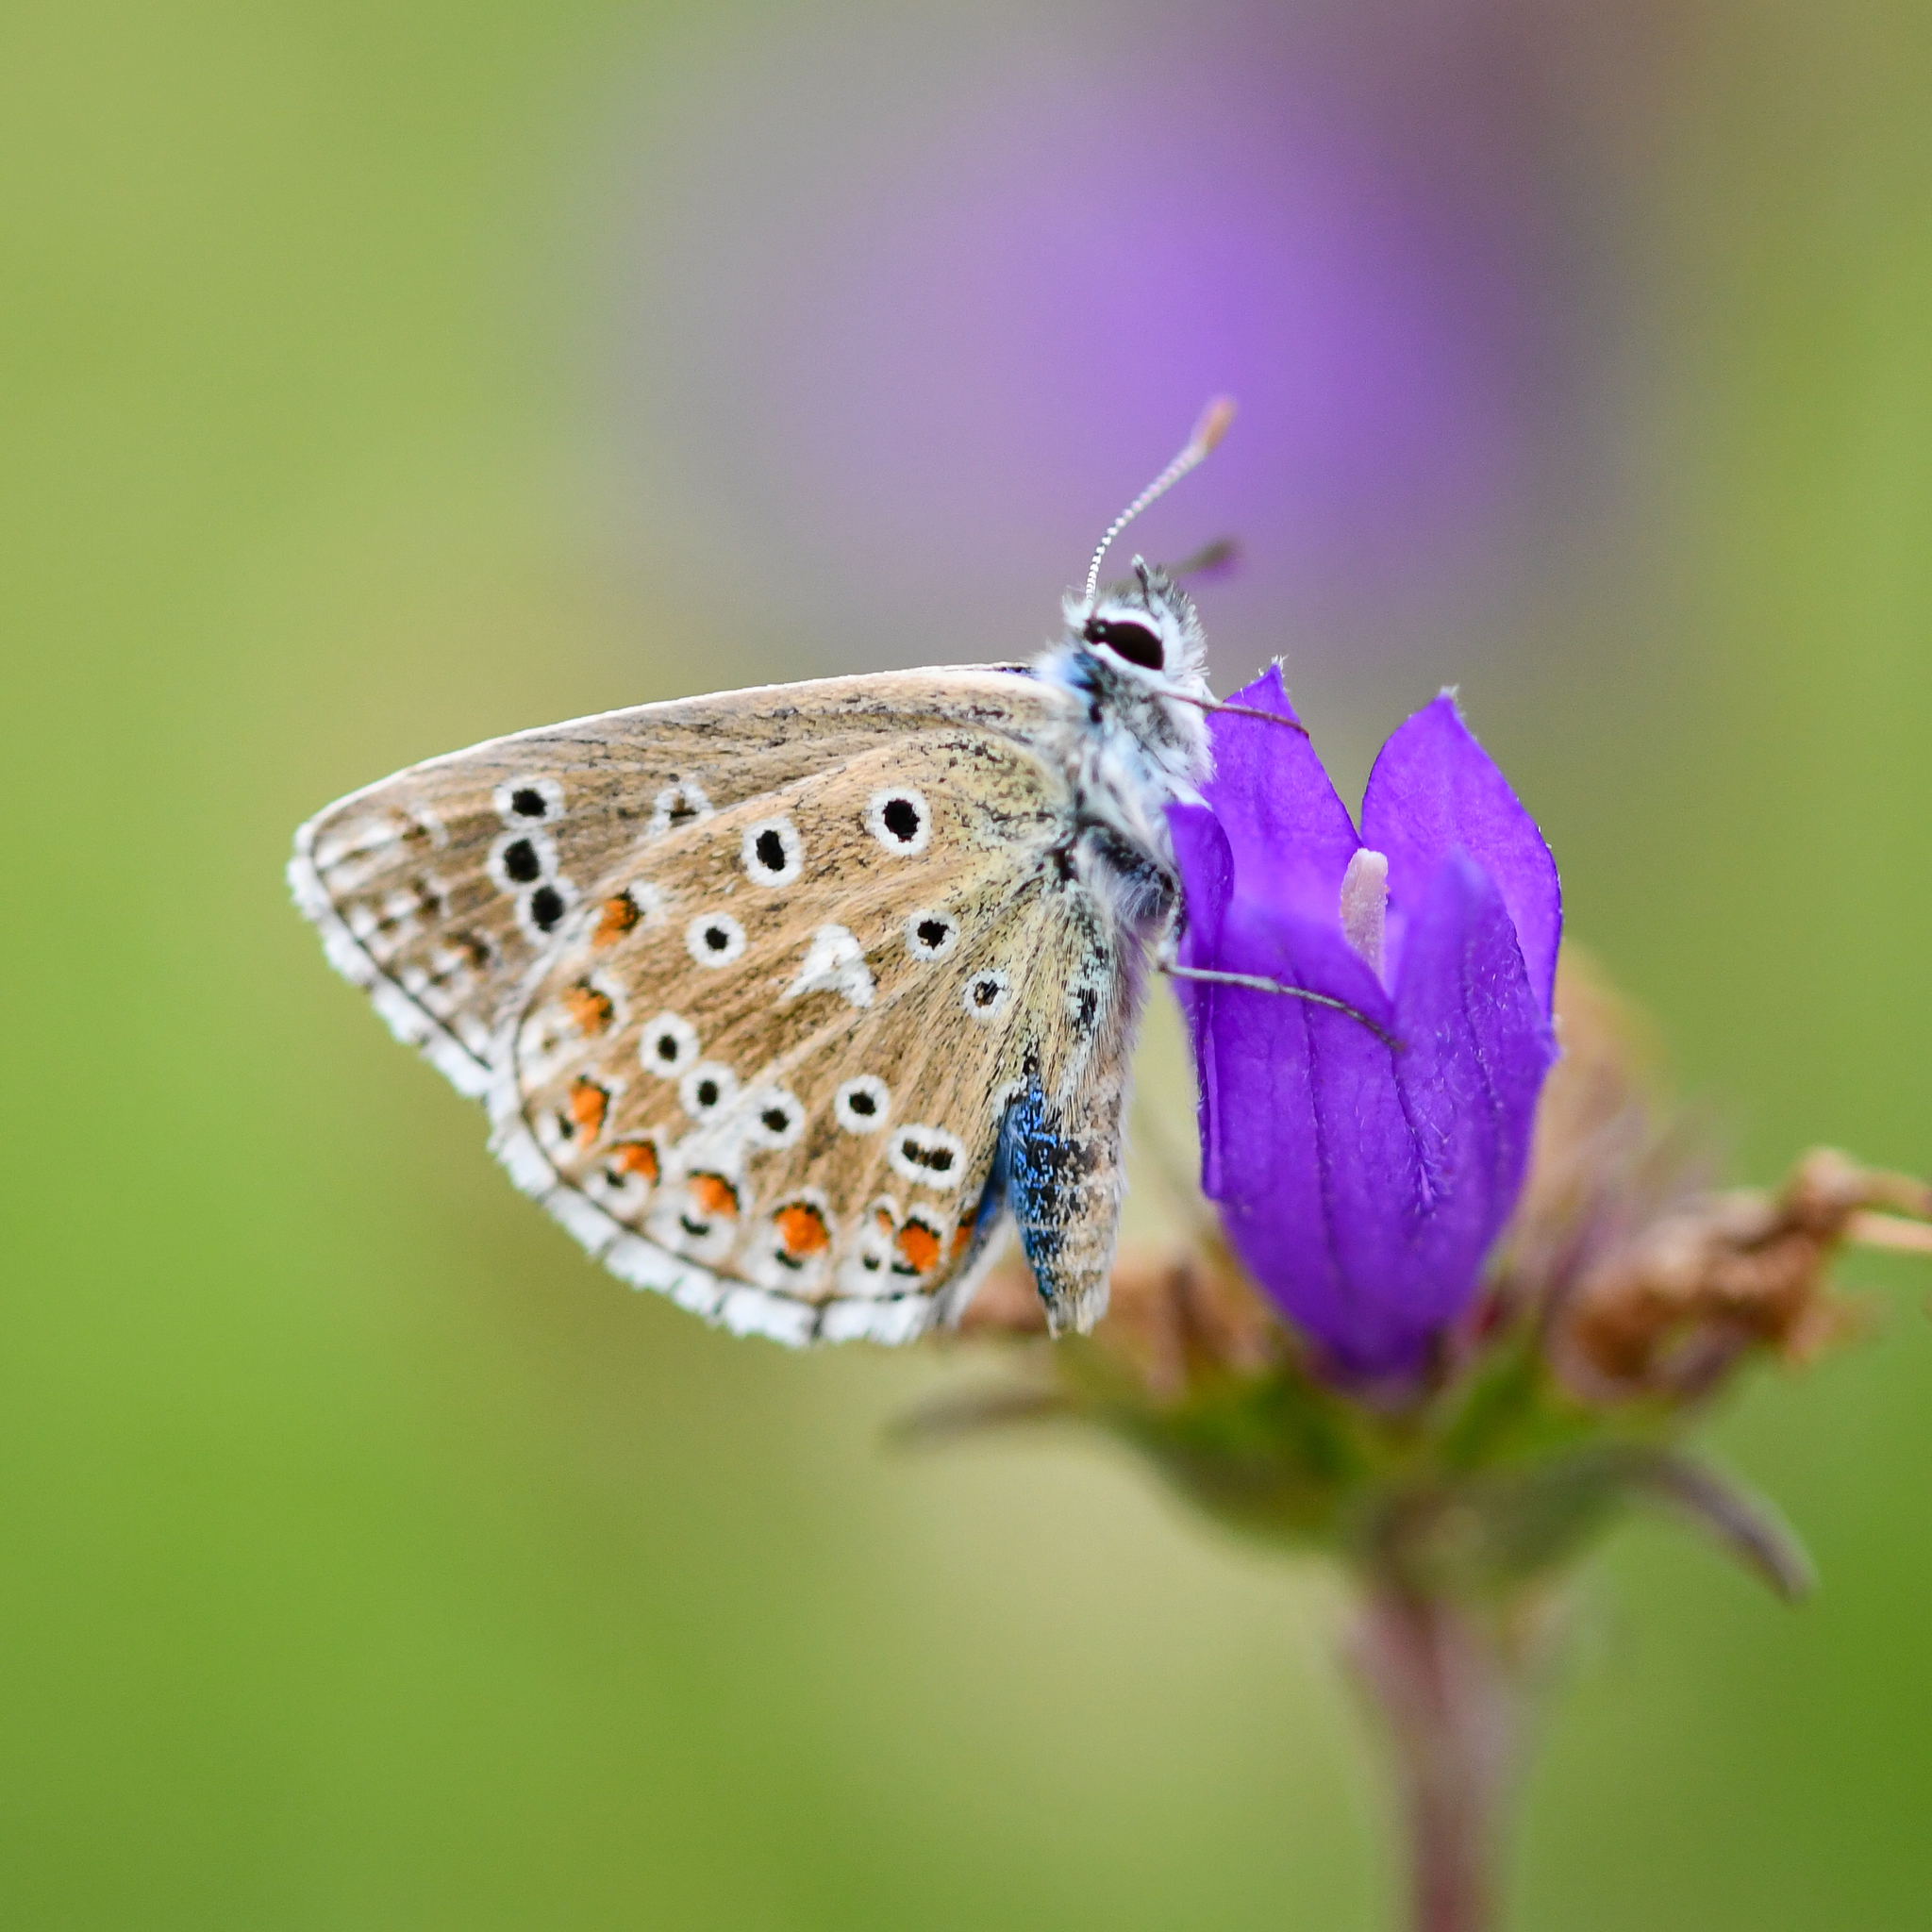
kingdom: Animalia
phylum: Arthropoda
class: Insecta
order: Lepidoptera
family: Lycaenidae
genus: Lysandra
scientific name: Lysandra bellargus
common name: Adonis blue
